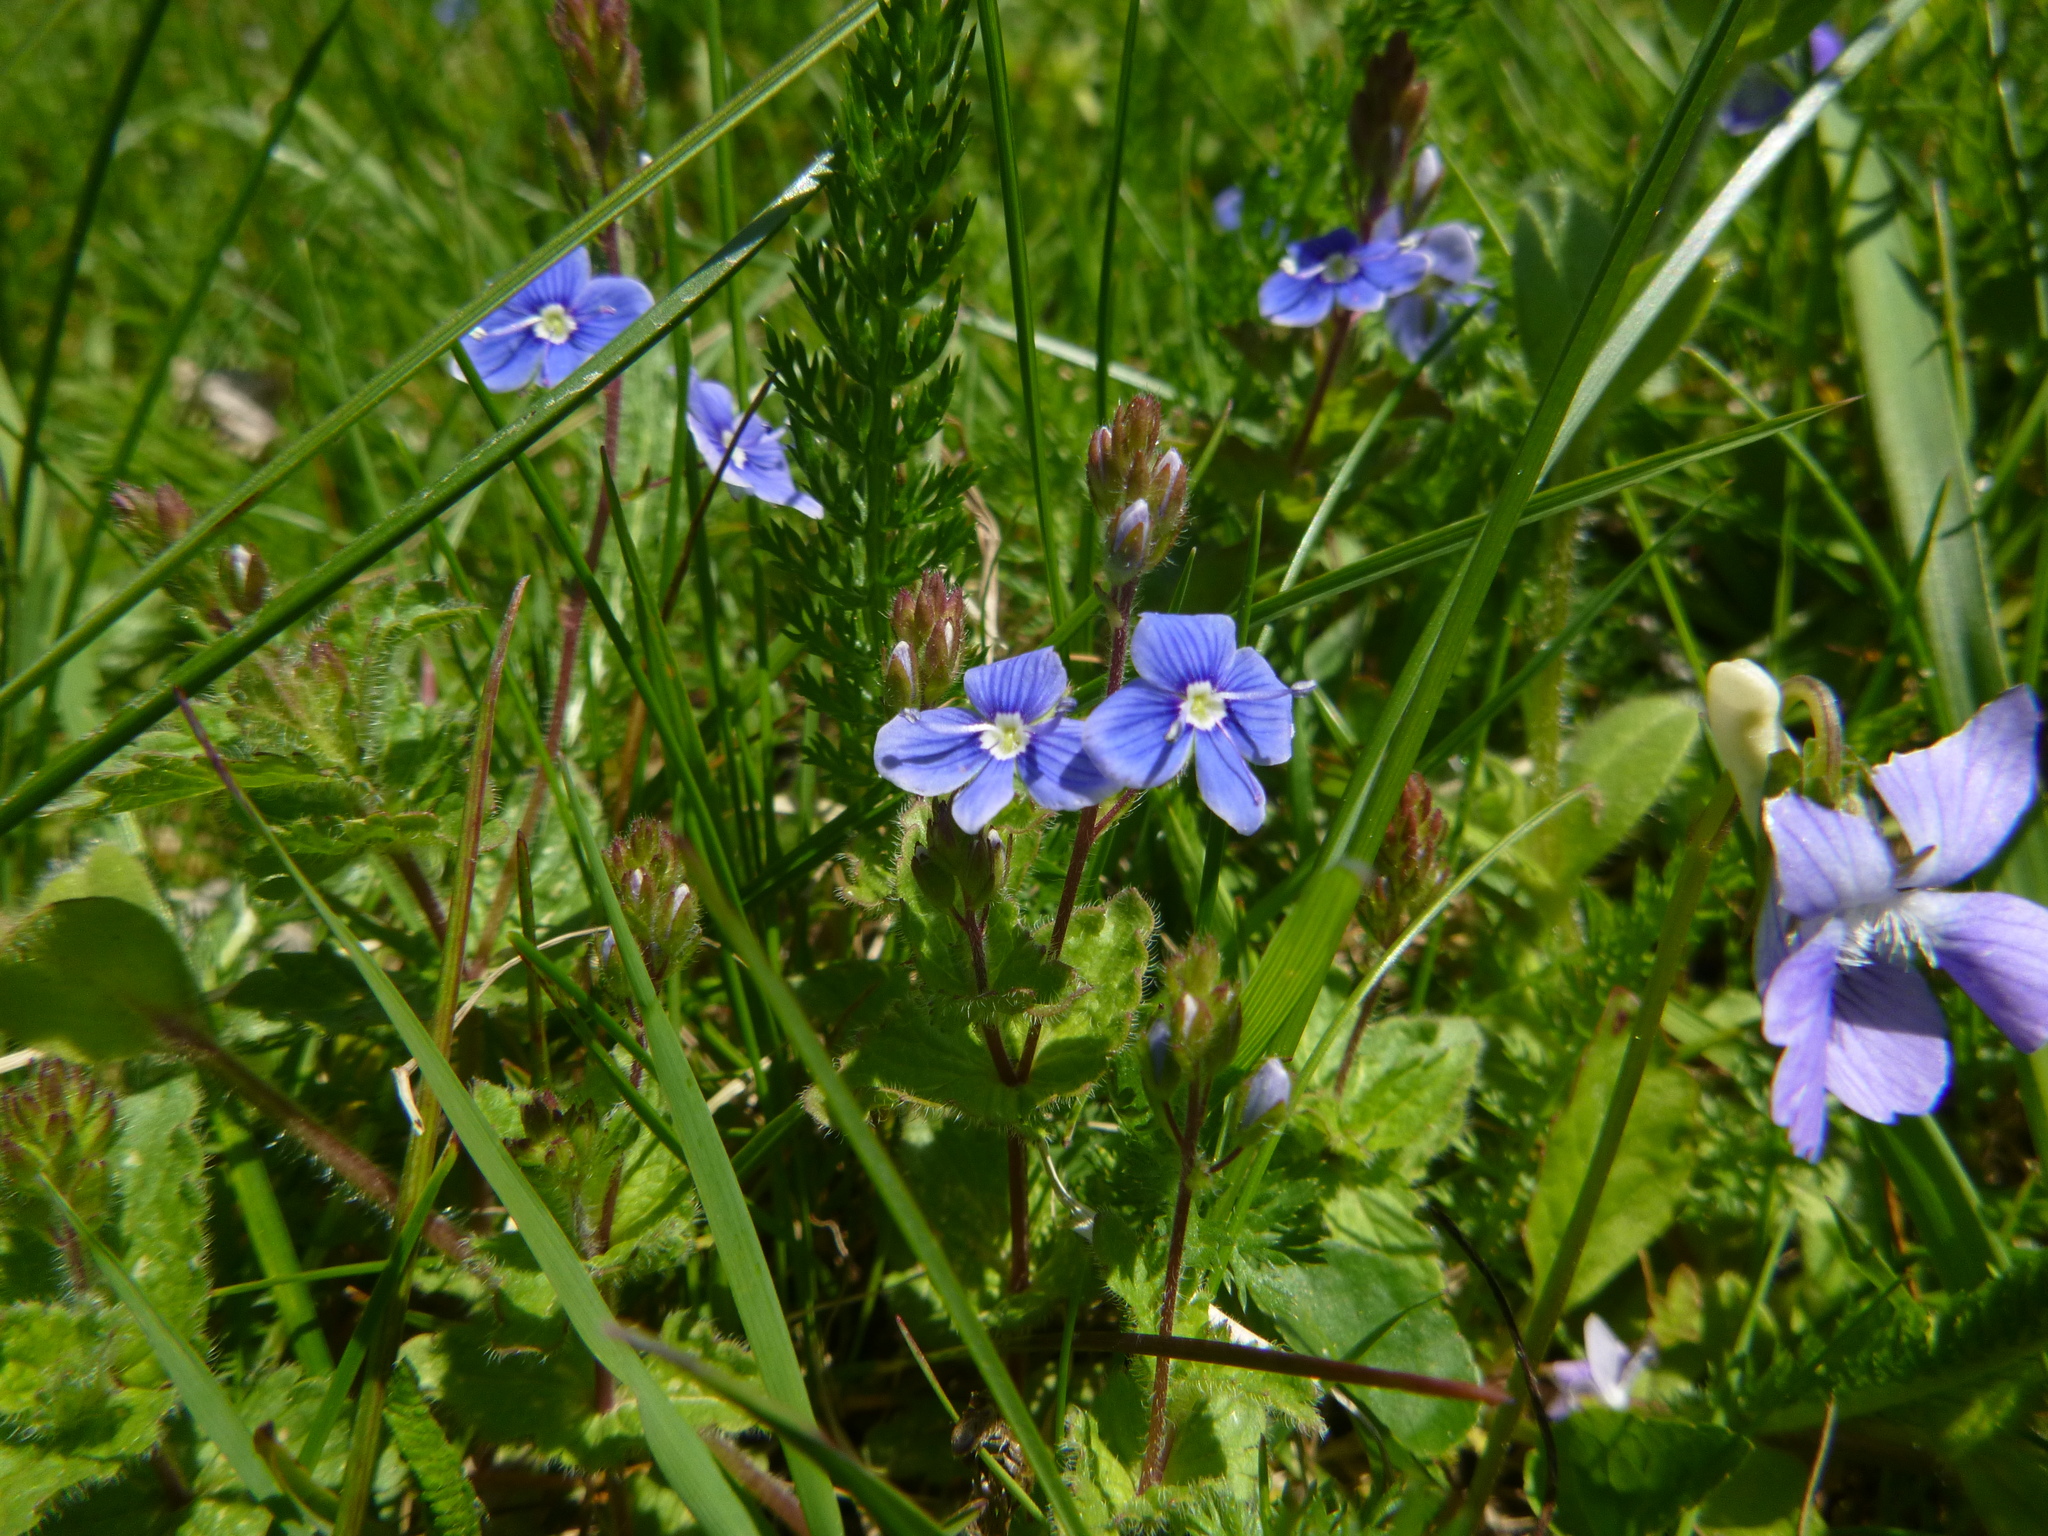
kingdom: Plantae
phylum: Tracheophyta
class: Magnoliopsida
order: Lamiales
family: Plantaginaceae
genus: Veronica
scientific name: Veronica chamaedrys
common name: Germander speedwell
